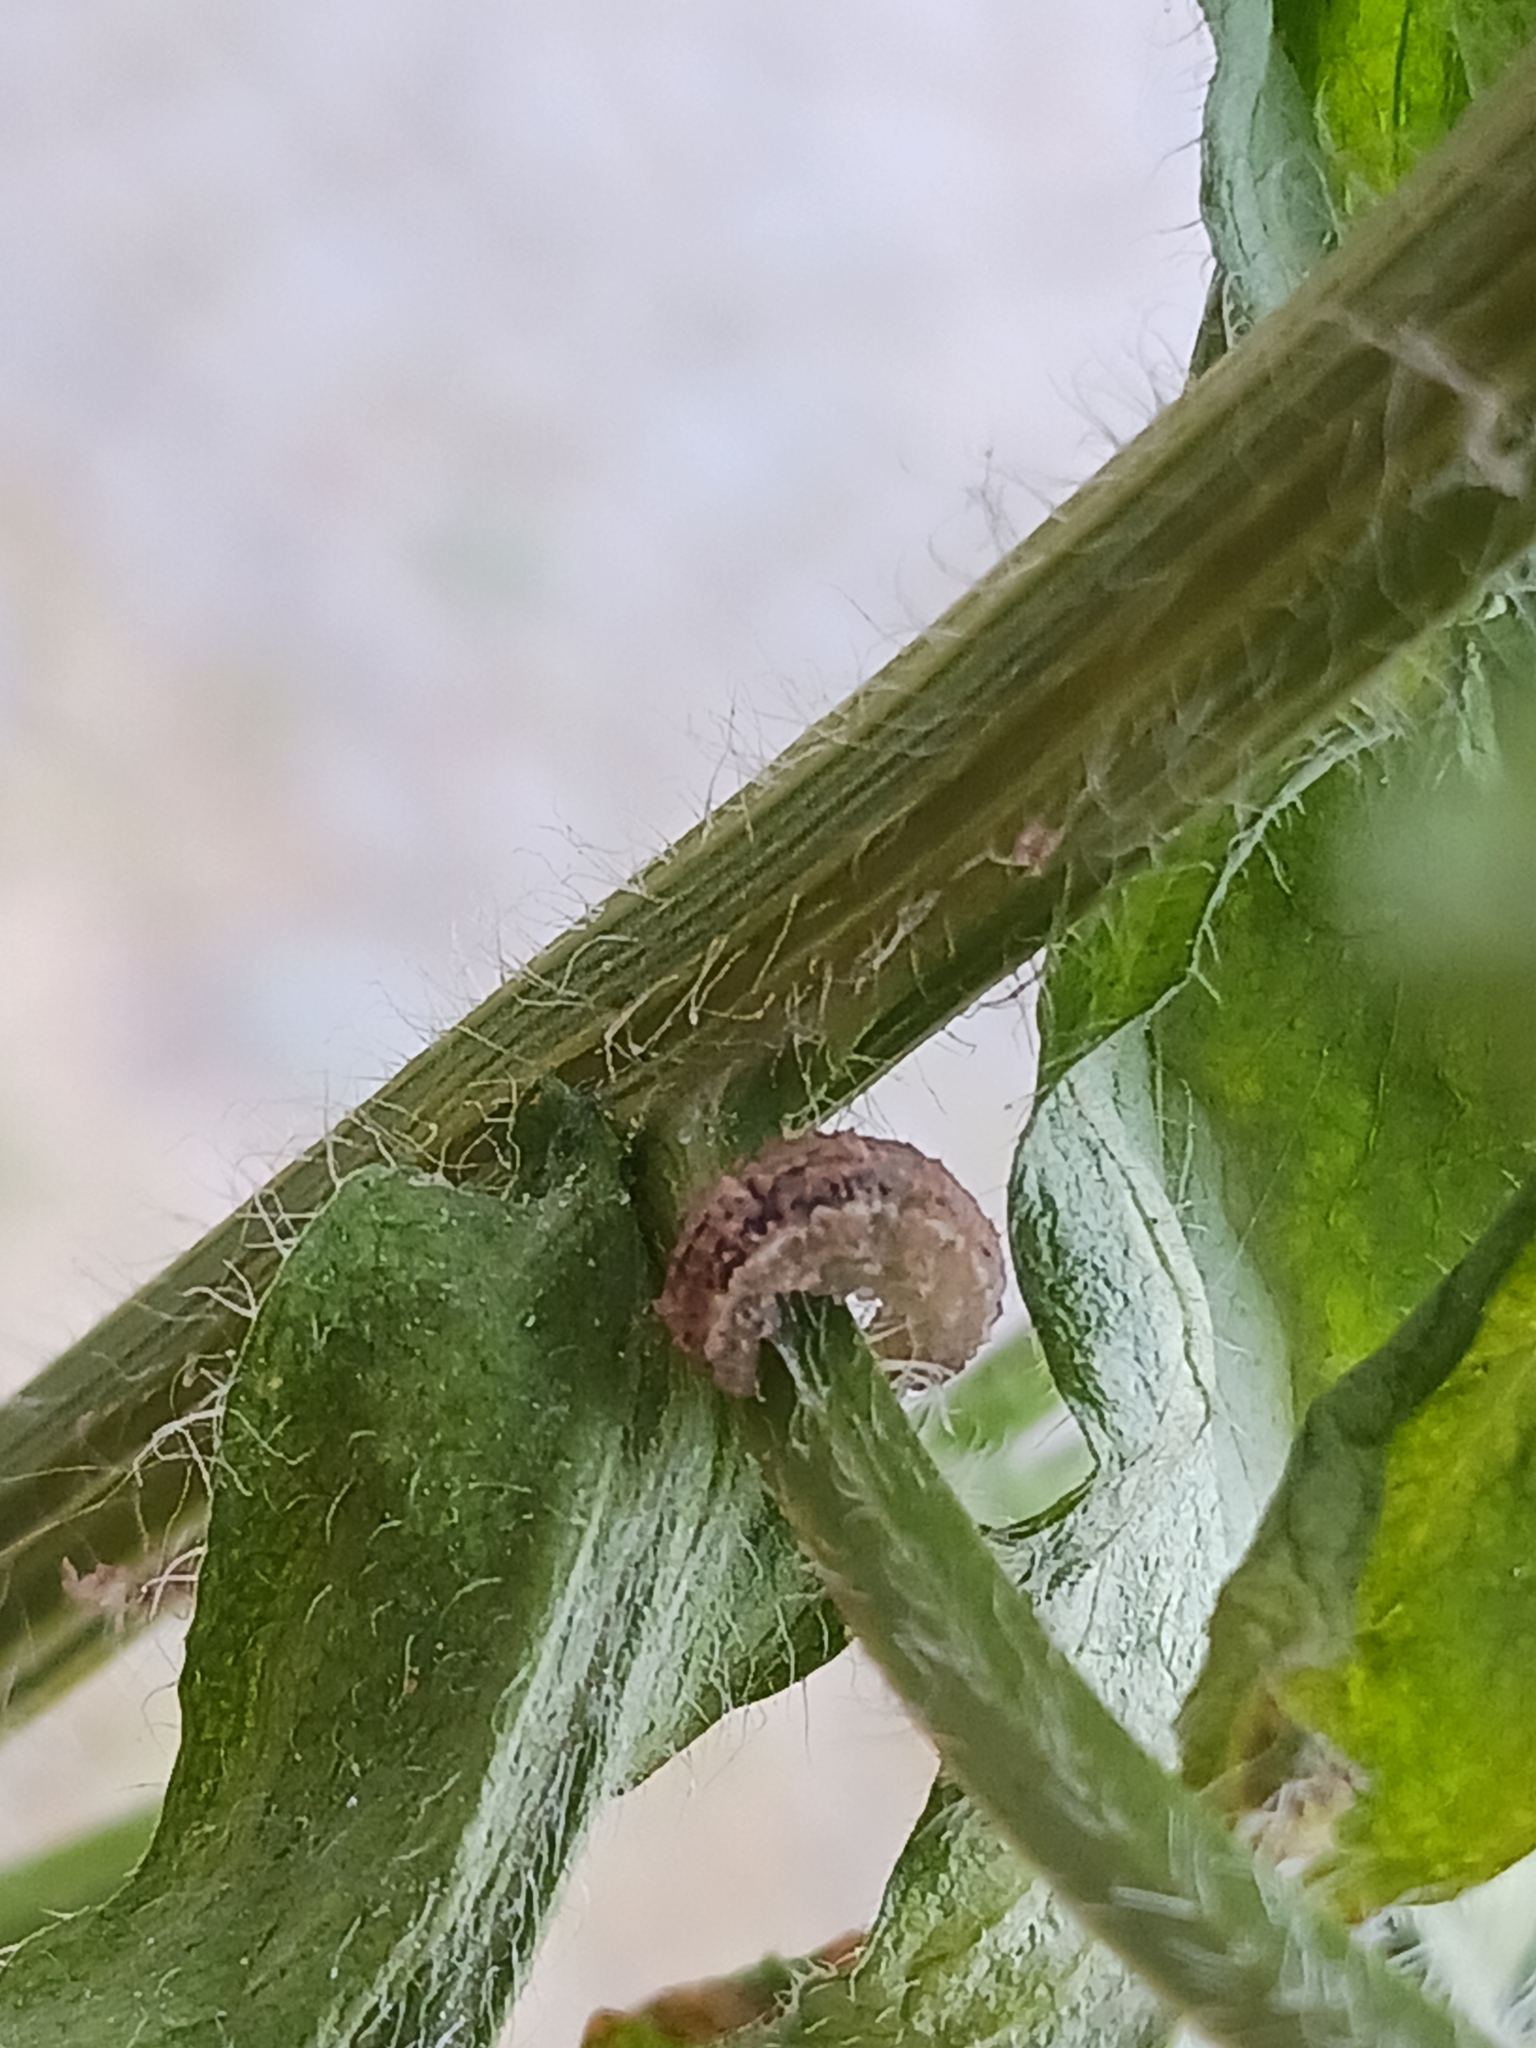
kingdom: Animalia
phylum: Arthropoda
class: Insecta
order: Diptera
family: Syrphidae
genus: Eupeodes
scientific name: Eupeodes
